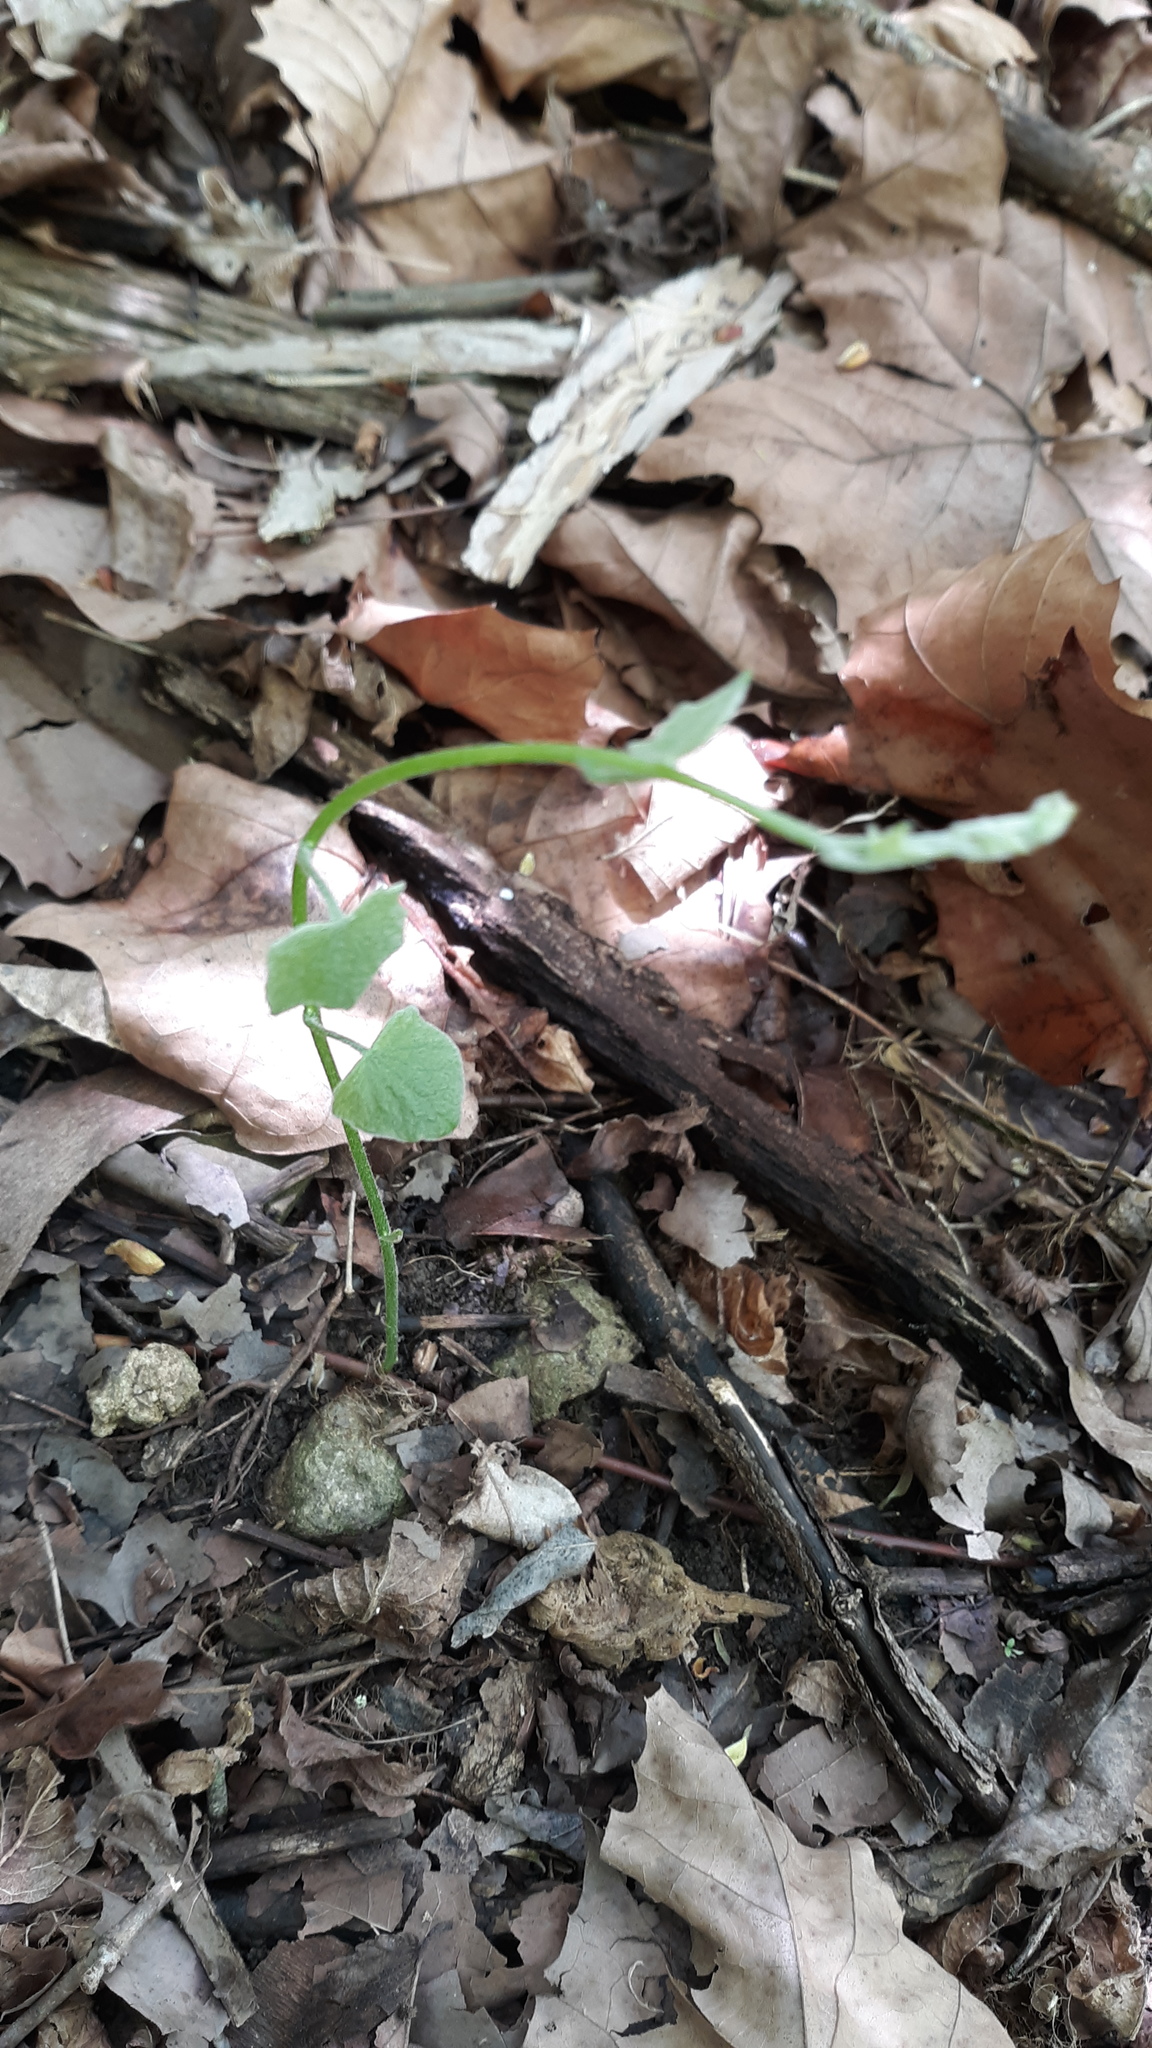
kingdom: Plantae
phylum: Tracheophyta
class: Magnoliopsida
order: Ranunculales
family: Menispermaceae
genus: Menispermum
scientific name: Menispermum canadense
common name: Moonseed
